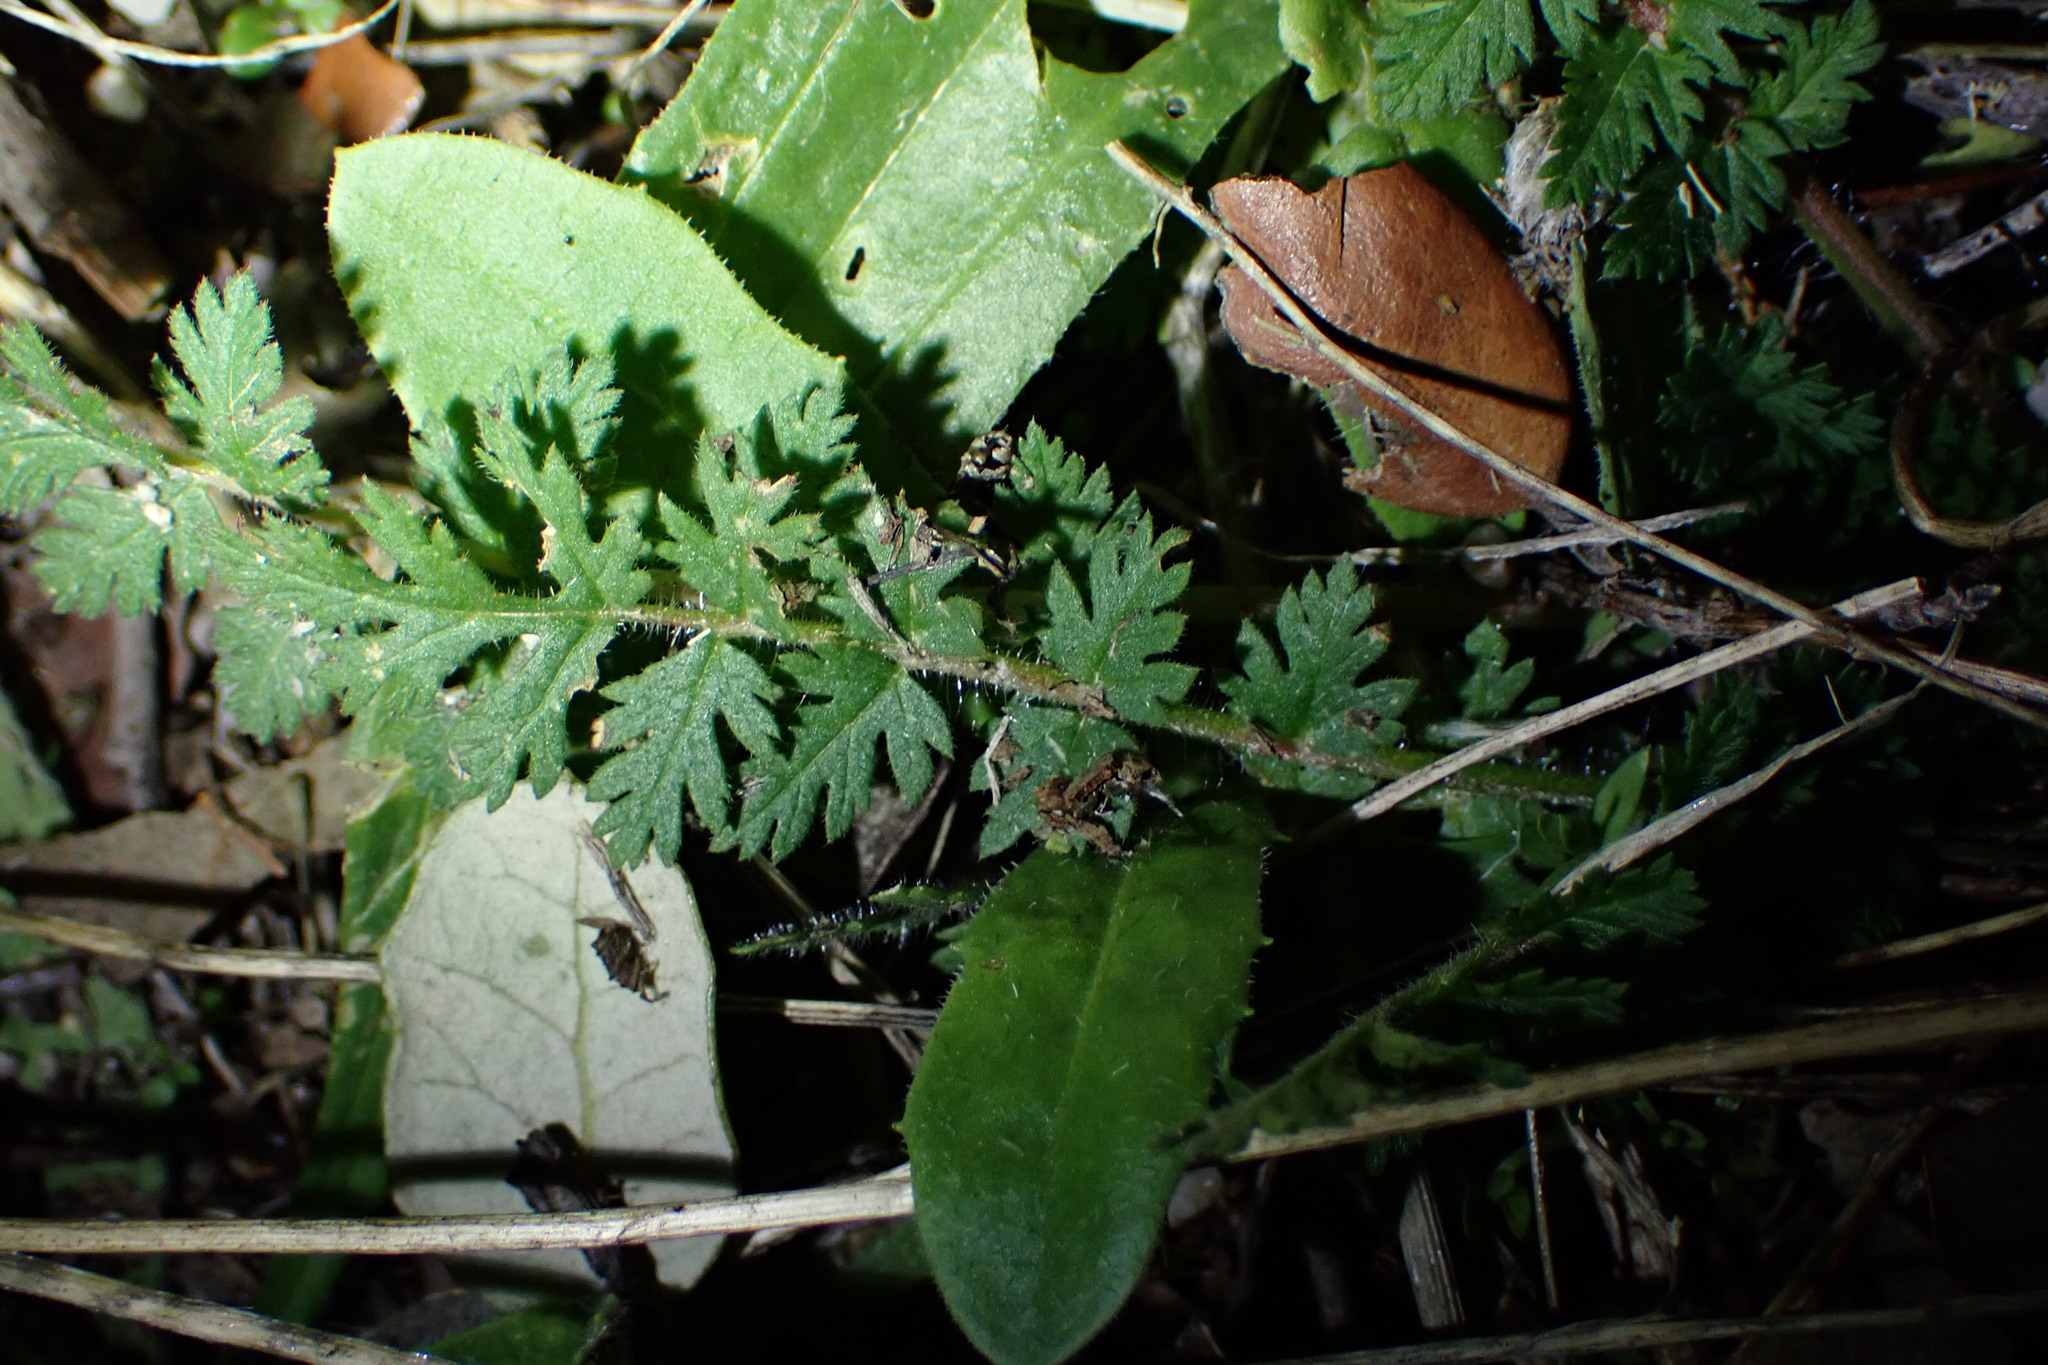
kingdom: Plantae
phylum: Tracheophyta
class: Magnoliopsida
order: Geraniales
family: Geraniaceae
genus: Erodium
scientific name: Erodium cicutarium
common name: Common stork's-bill
